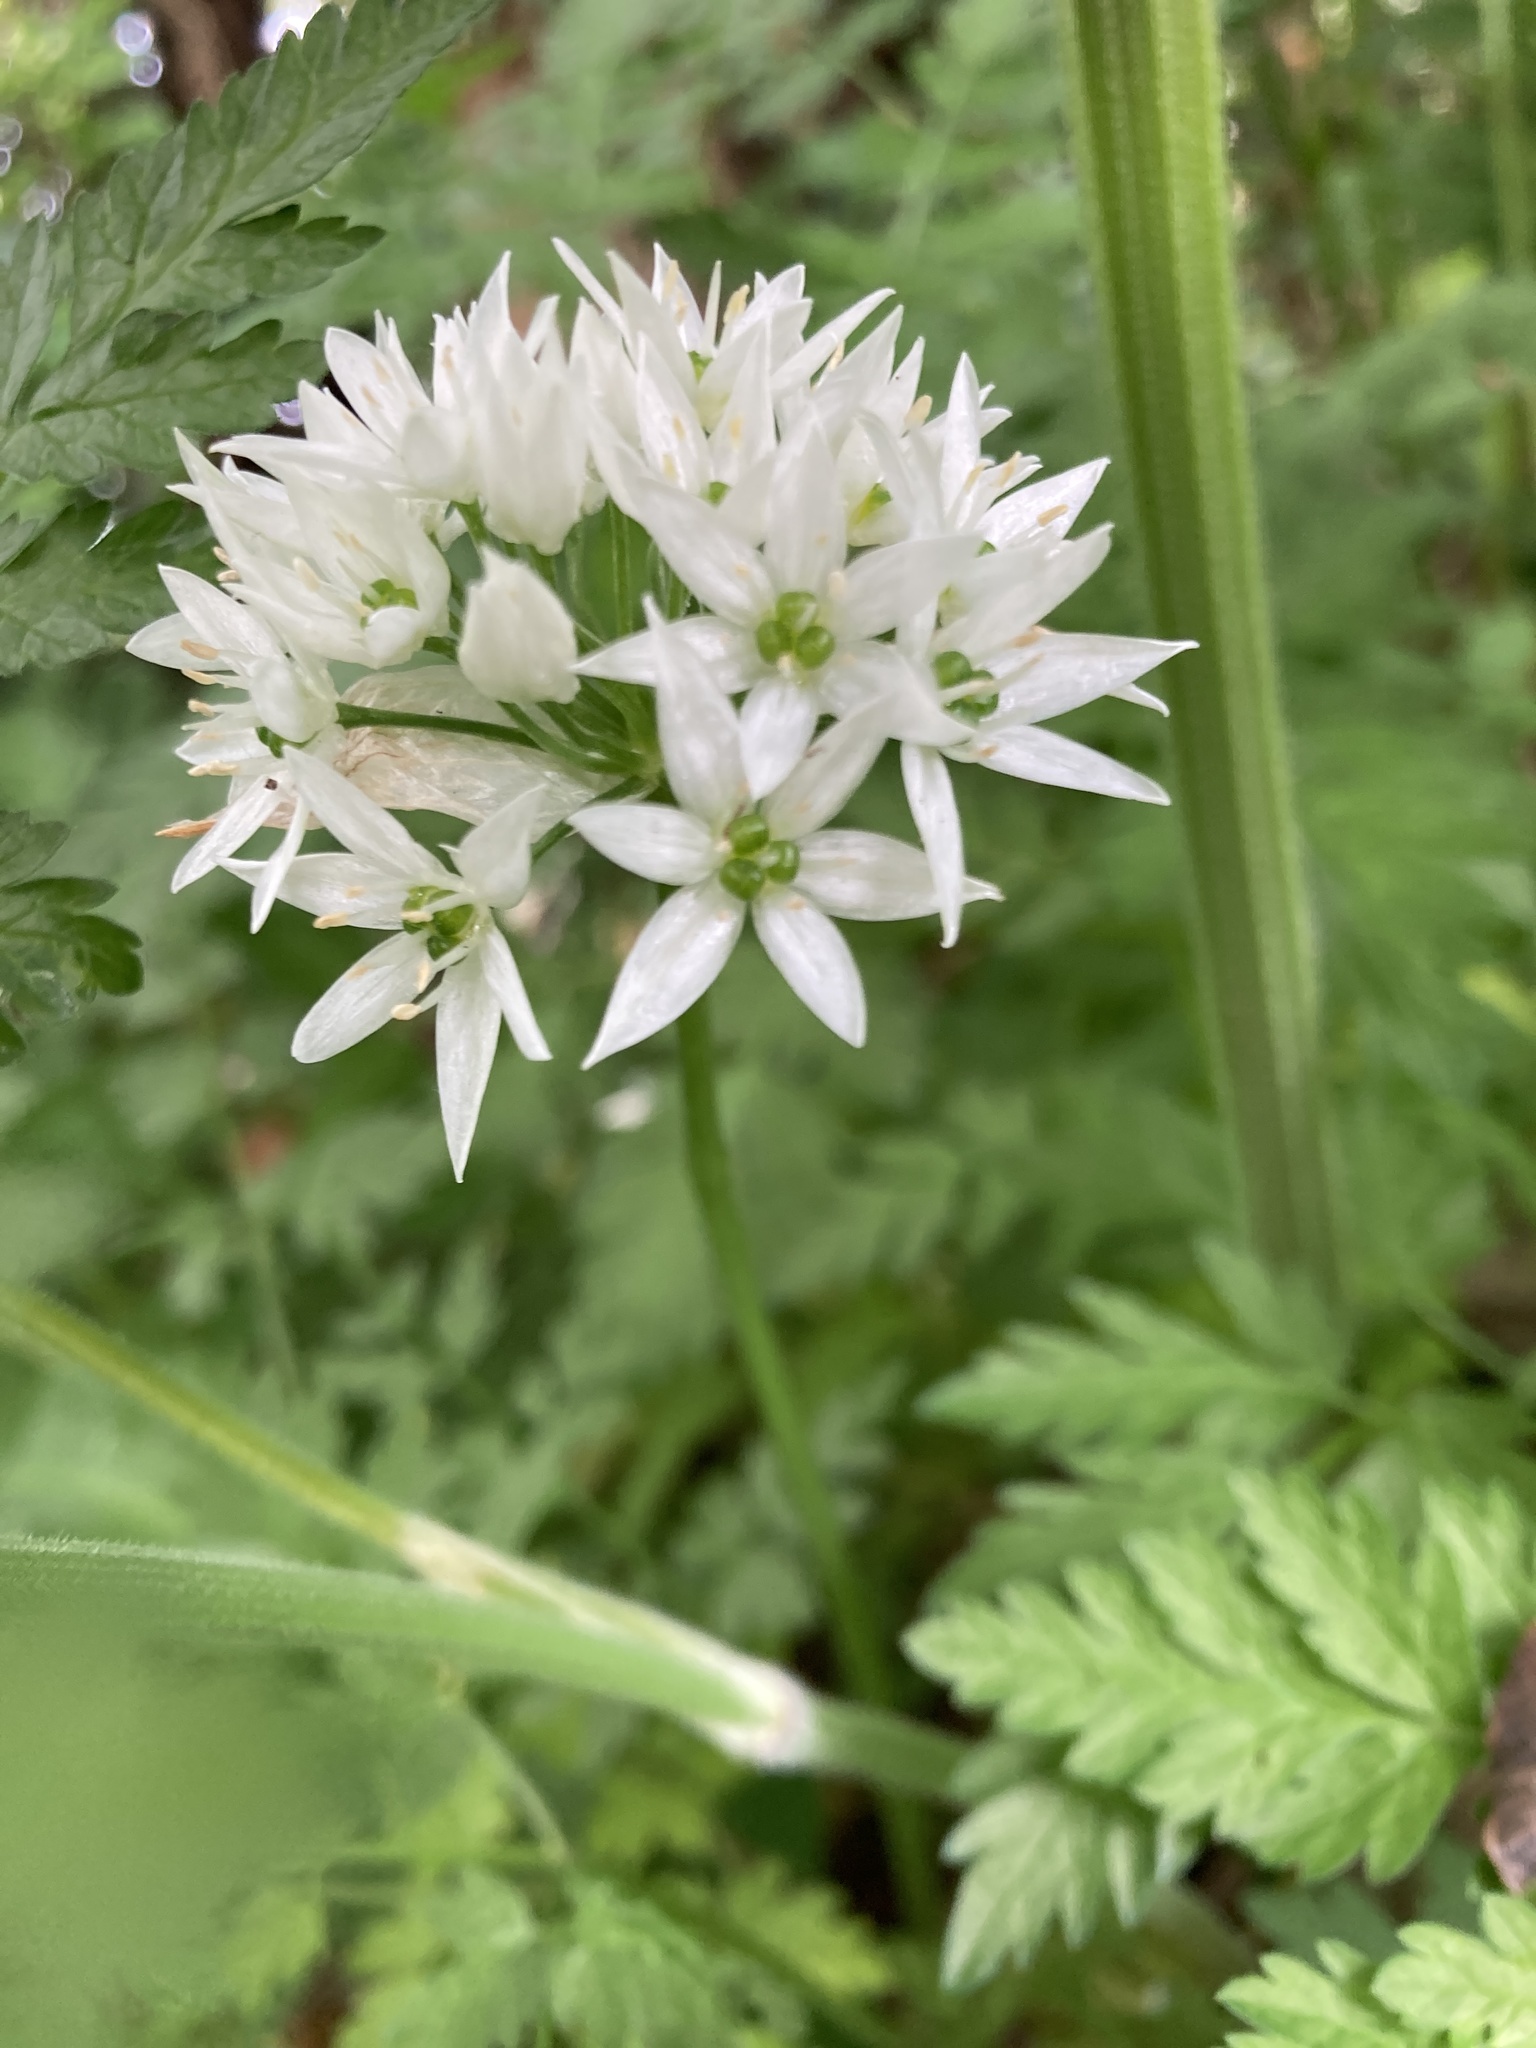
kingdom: Plantae
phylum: Tracheophyta
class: Liliopsida
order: Asparagales
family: Amaryllidaceae
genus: Allium
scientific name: Allium ursinum
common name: Ramsons
